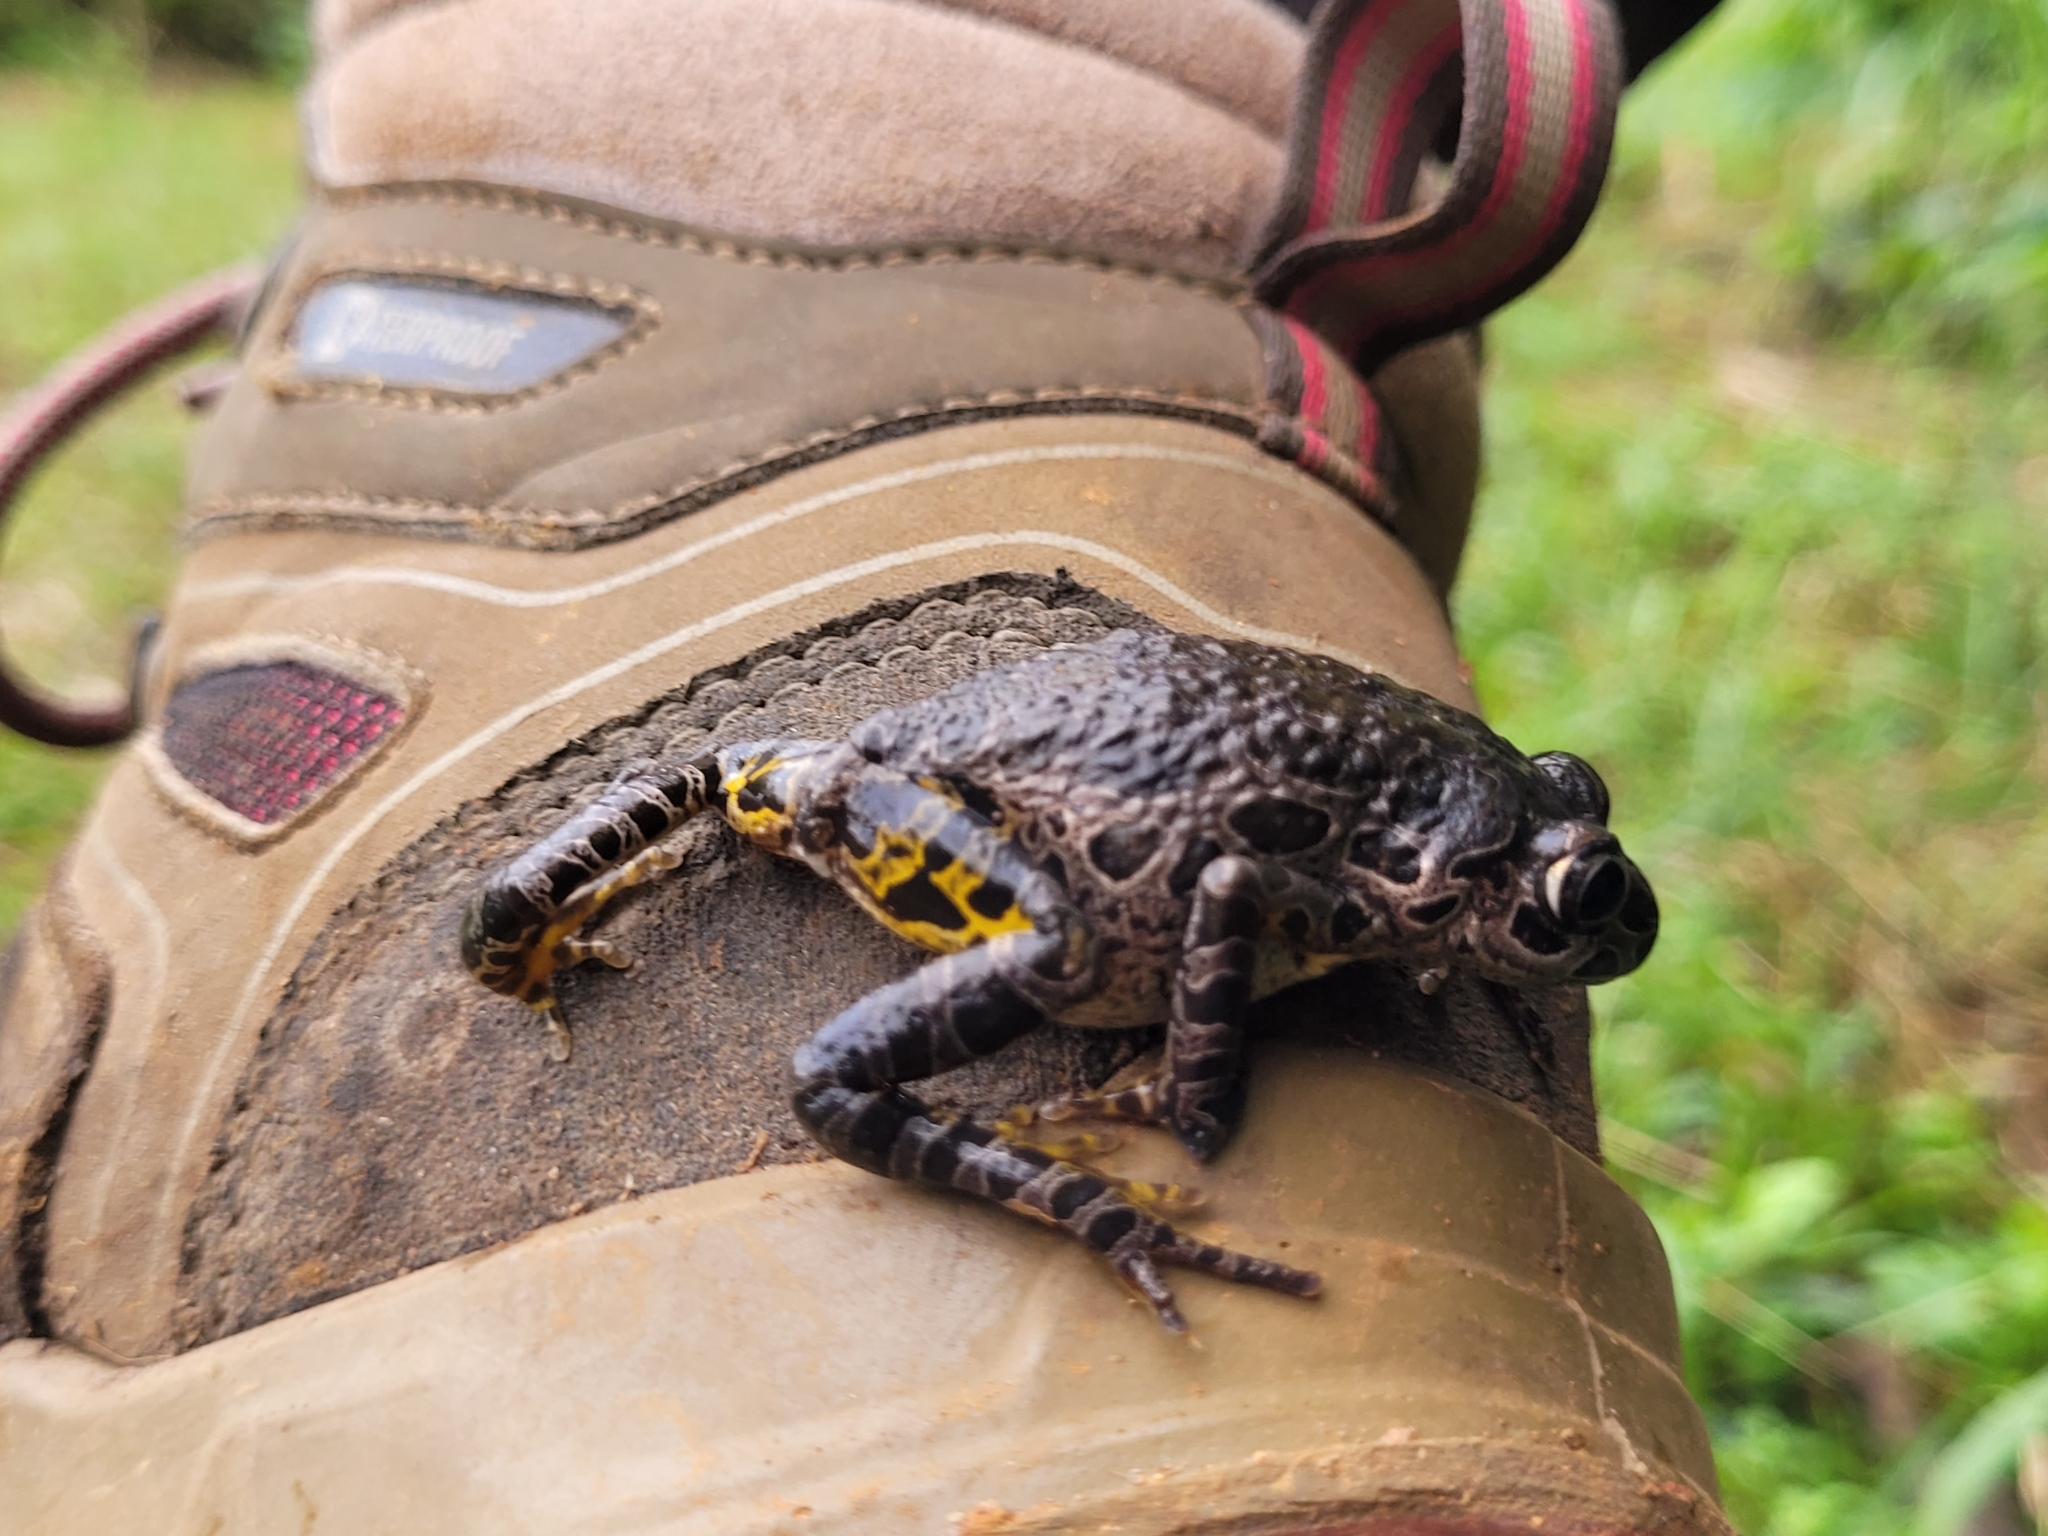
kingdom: Animalia
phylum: Chordata
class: Amphibia
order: Anura
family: Hyperoliidae
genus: Kassina
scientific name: Kassina arboricola
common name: Ivory coast running frog
